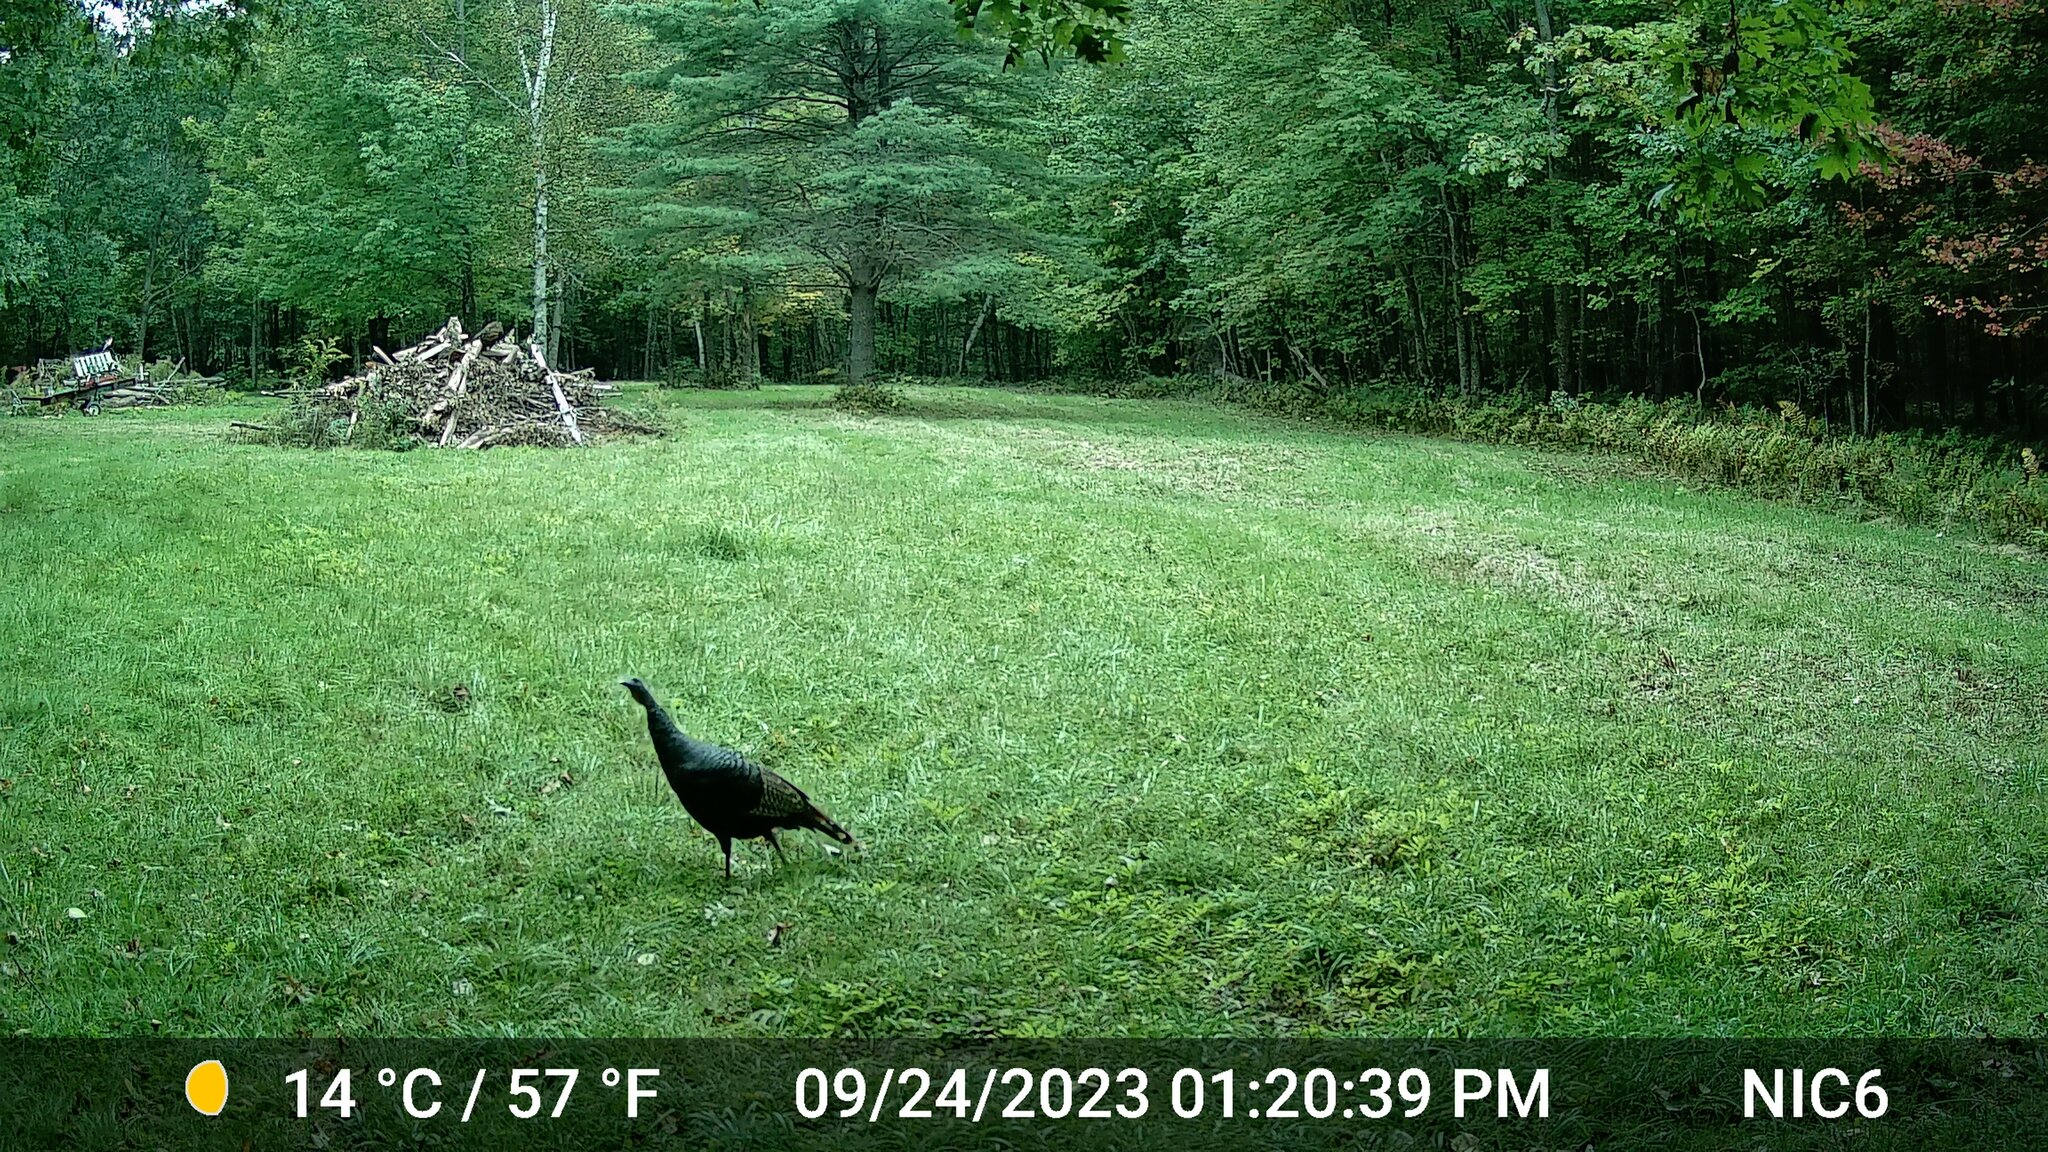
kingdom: Animalia
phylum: Chordata
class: Aves
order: Galliformes
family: Phasianidae
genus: Meleagris
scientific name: Meleagris gallopavo
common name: Wild turkey
